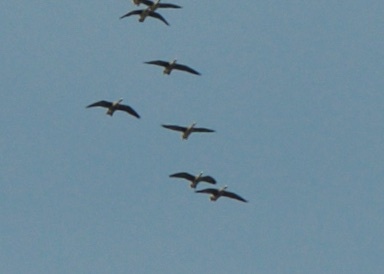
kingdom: Animalia
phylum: Chordata
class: Aves
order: Anseriformes
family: Anatidae
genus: Anser
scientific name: Anser albifrons
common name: Greater white-fronted goose
